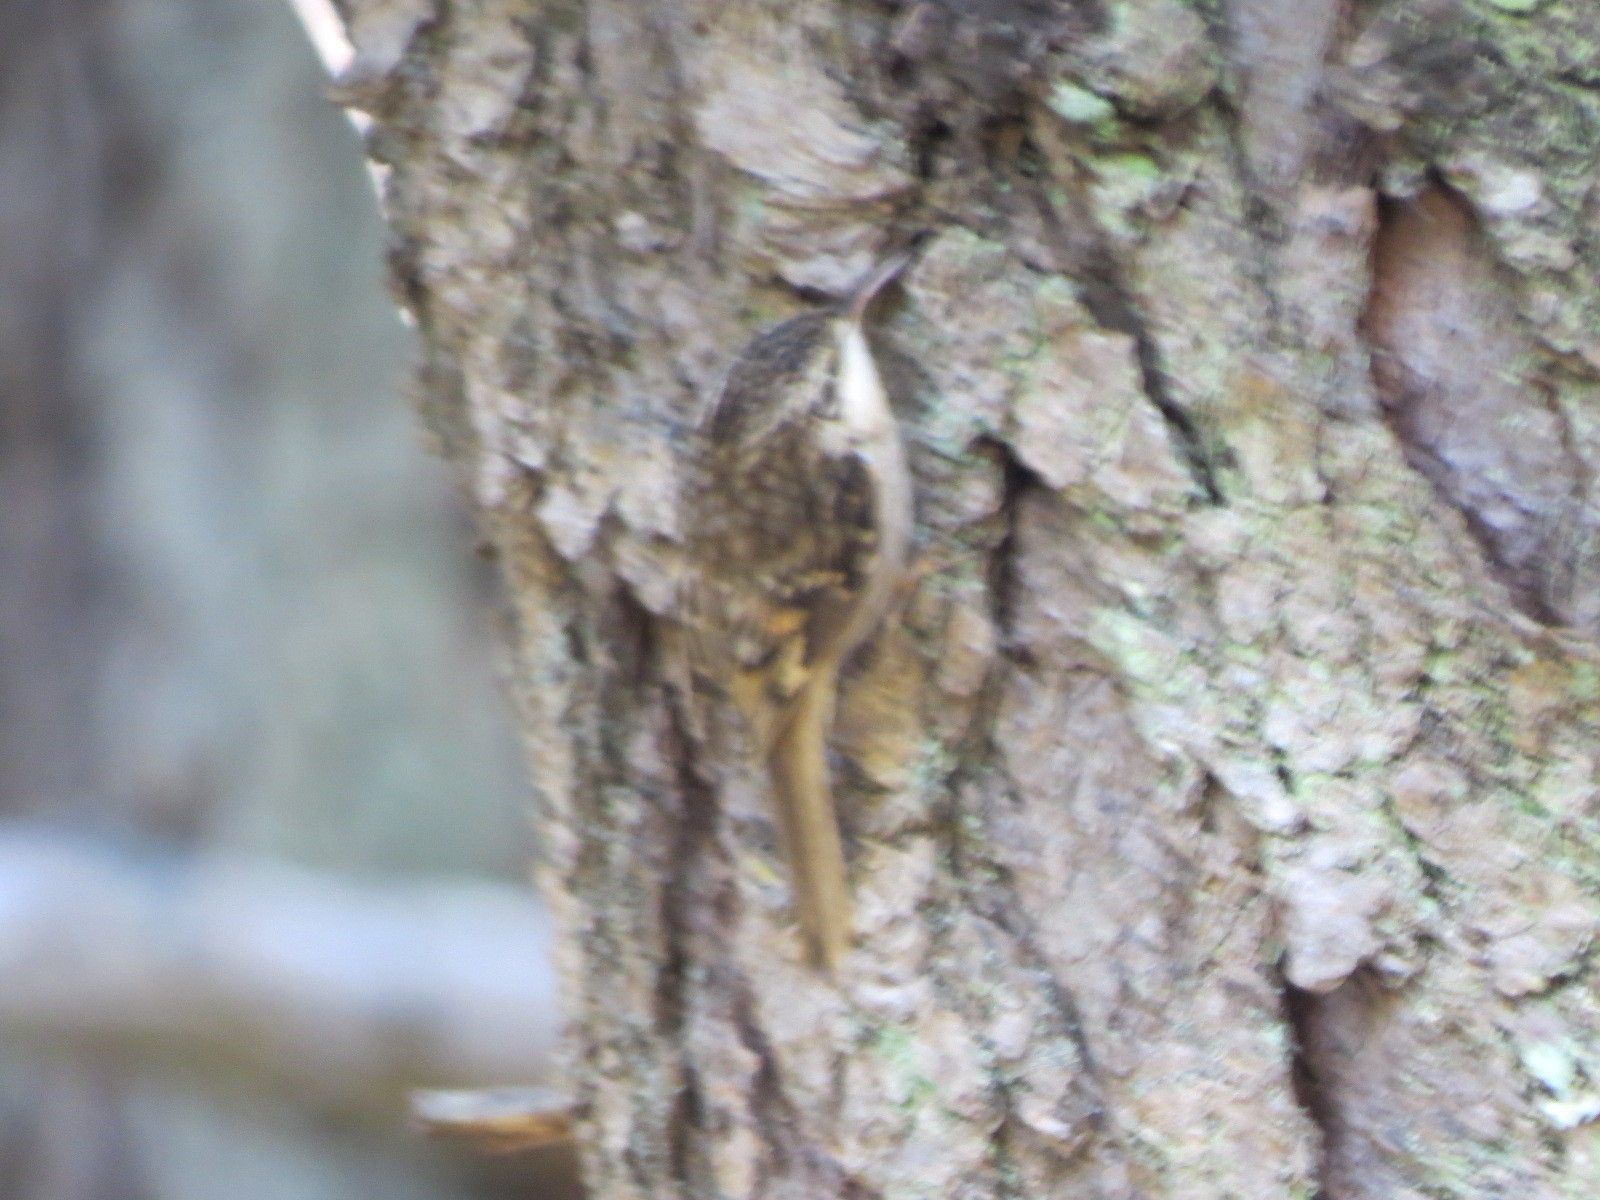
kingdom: Animalia
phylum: Chordata
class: Aves
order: Passeriformes
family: Certhiidae
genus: Certhia
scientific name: Certhia americana
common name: Brown creeper
